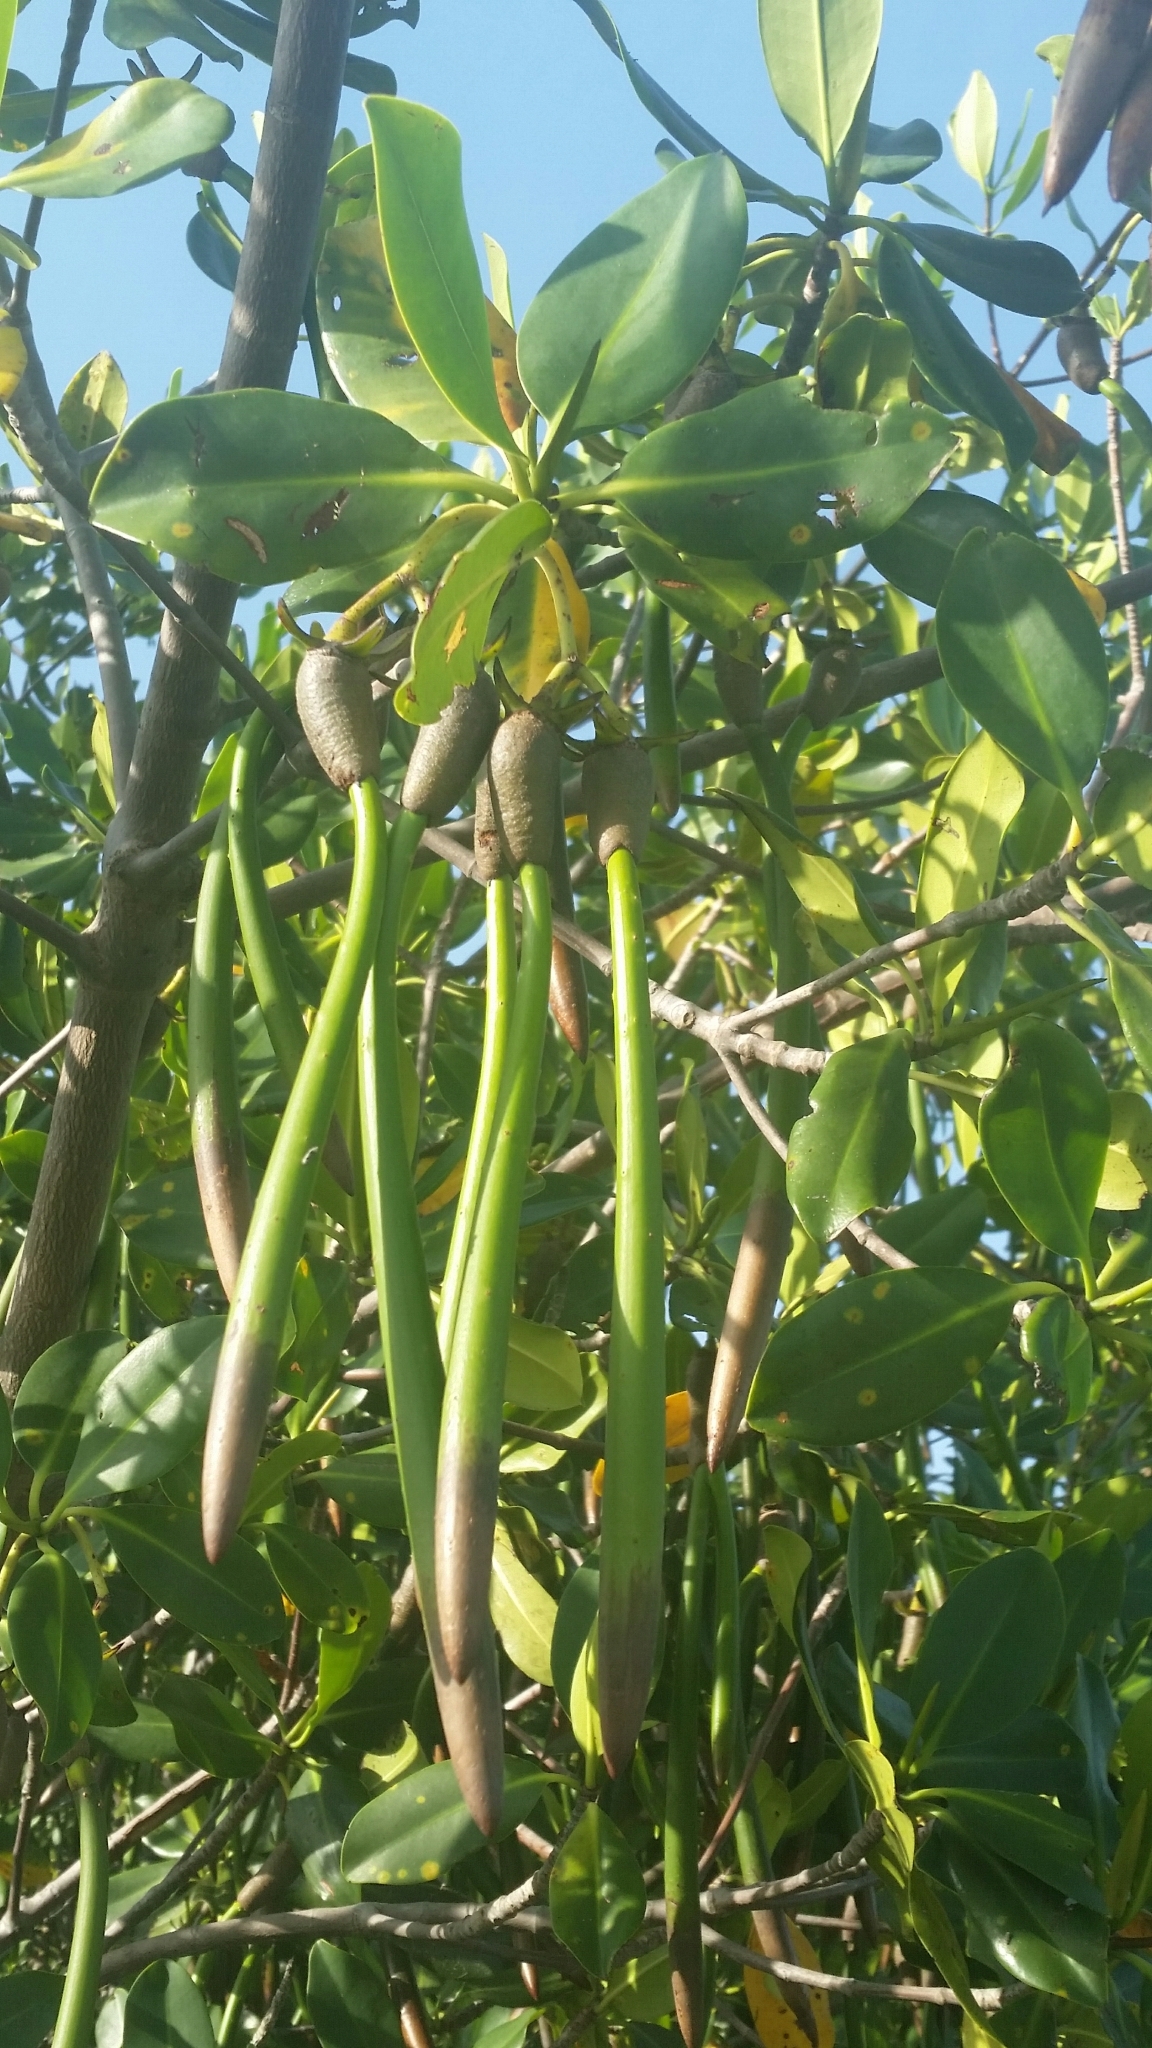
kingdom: Plantae
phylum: Tracheophyta
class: Magnoliopsida
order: Malpighiales
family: Rhizophoraceae
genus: Rhizophora
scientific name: Rhizophora mangle
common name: Red mangrove
